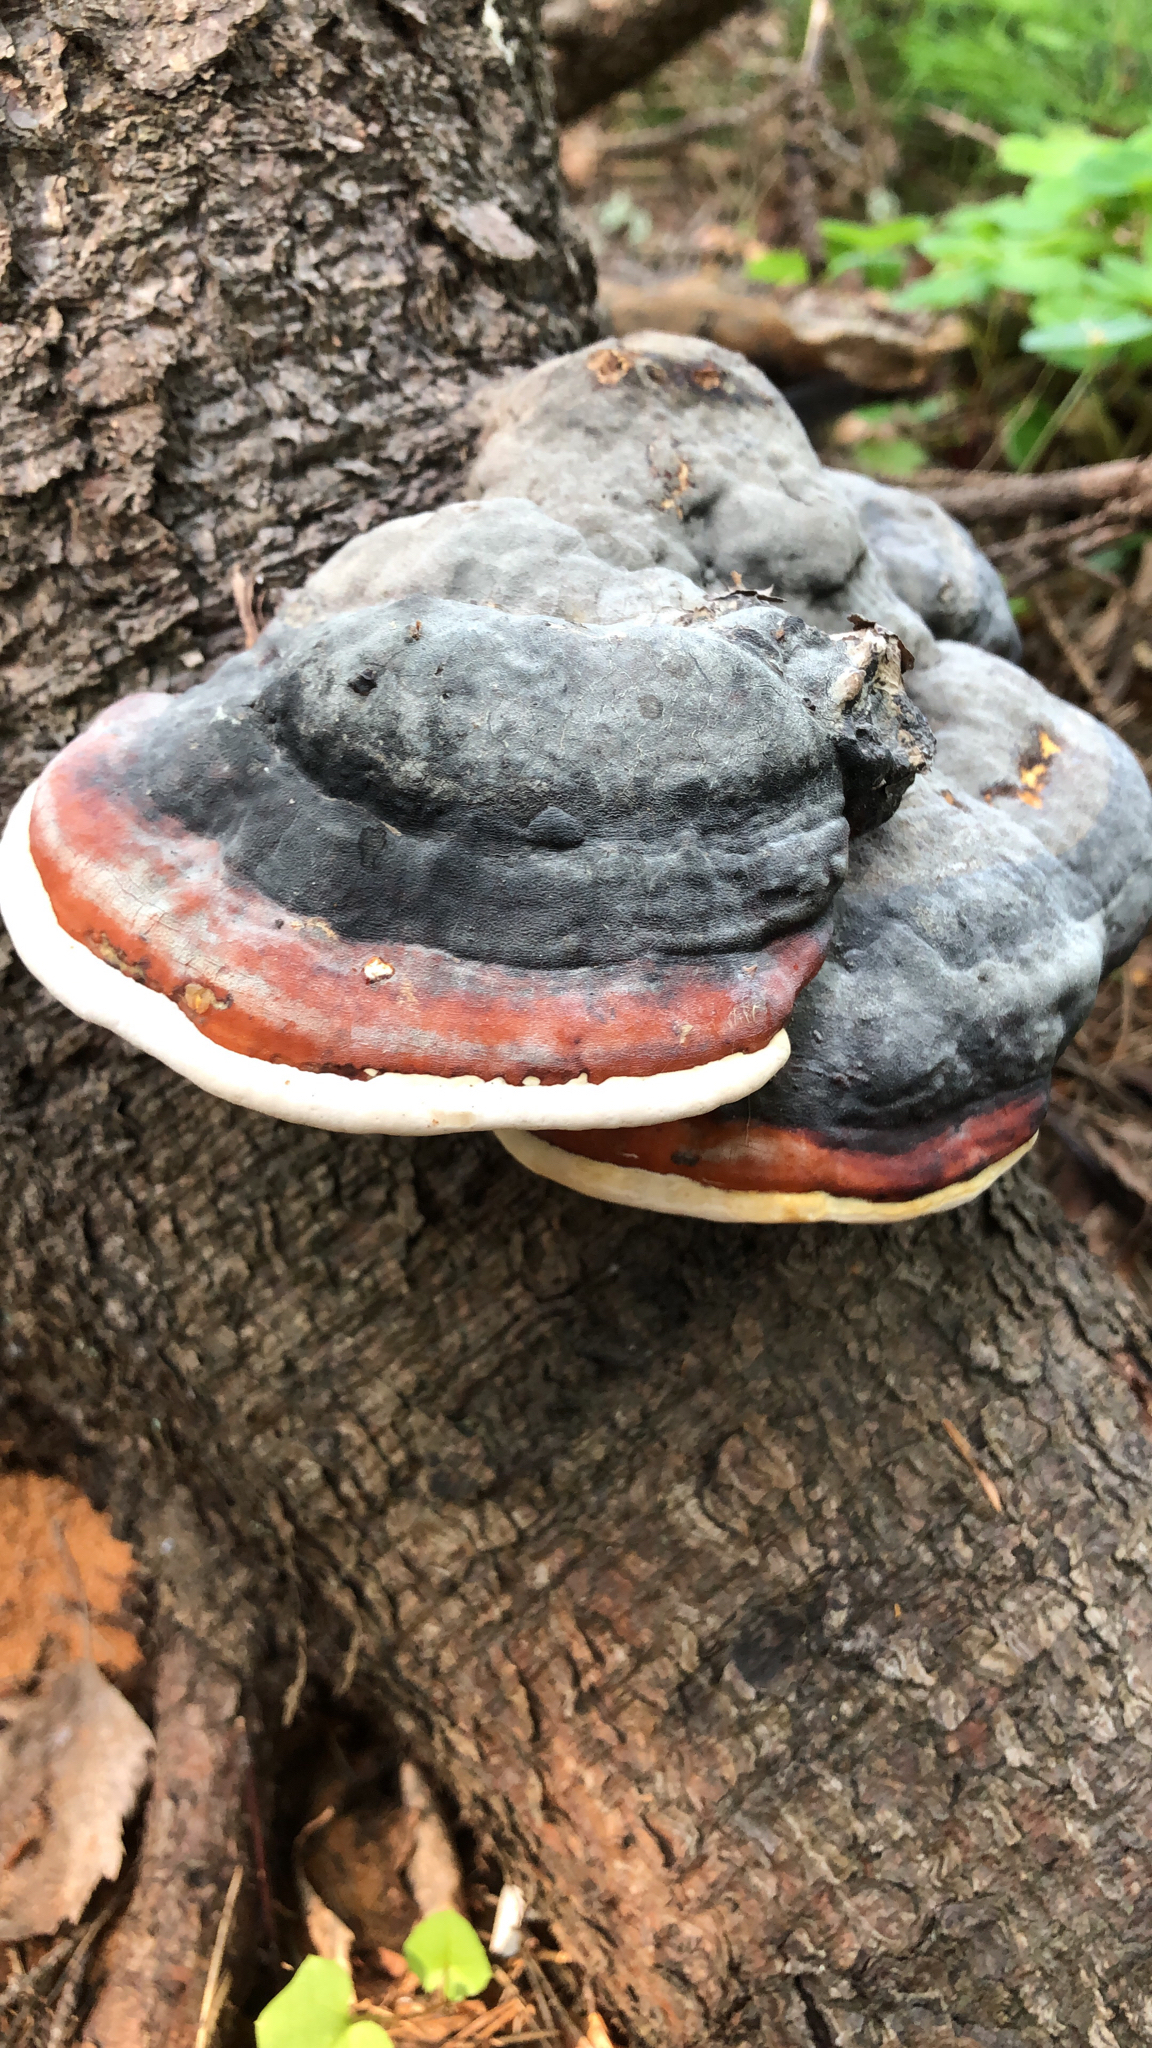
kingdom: Fungi
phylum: Basidiomycota
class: Agaricomycetes
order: Polyporales
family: Fomitopsidaceae
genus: Fomitopsis
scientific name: Fomitopsis pinicola
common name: Red-belted bracket
